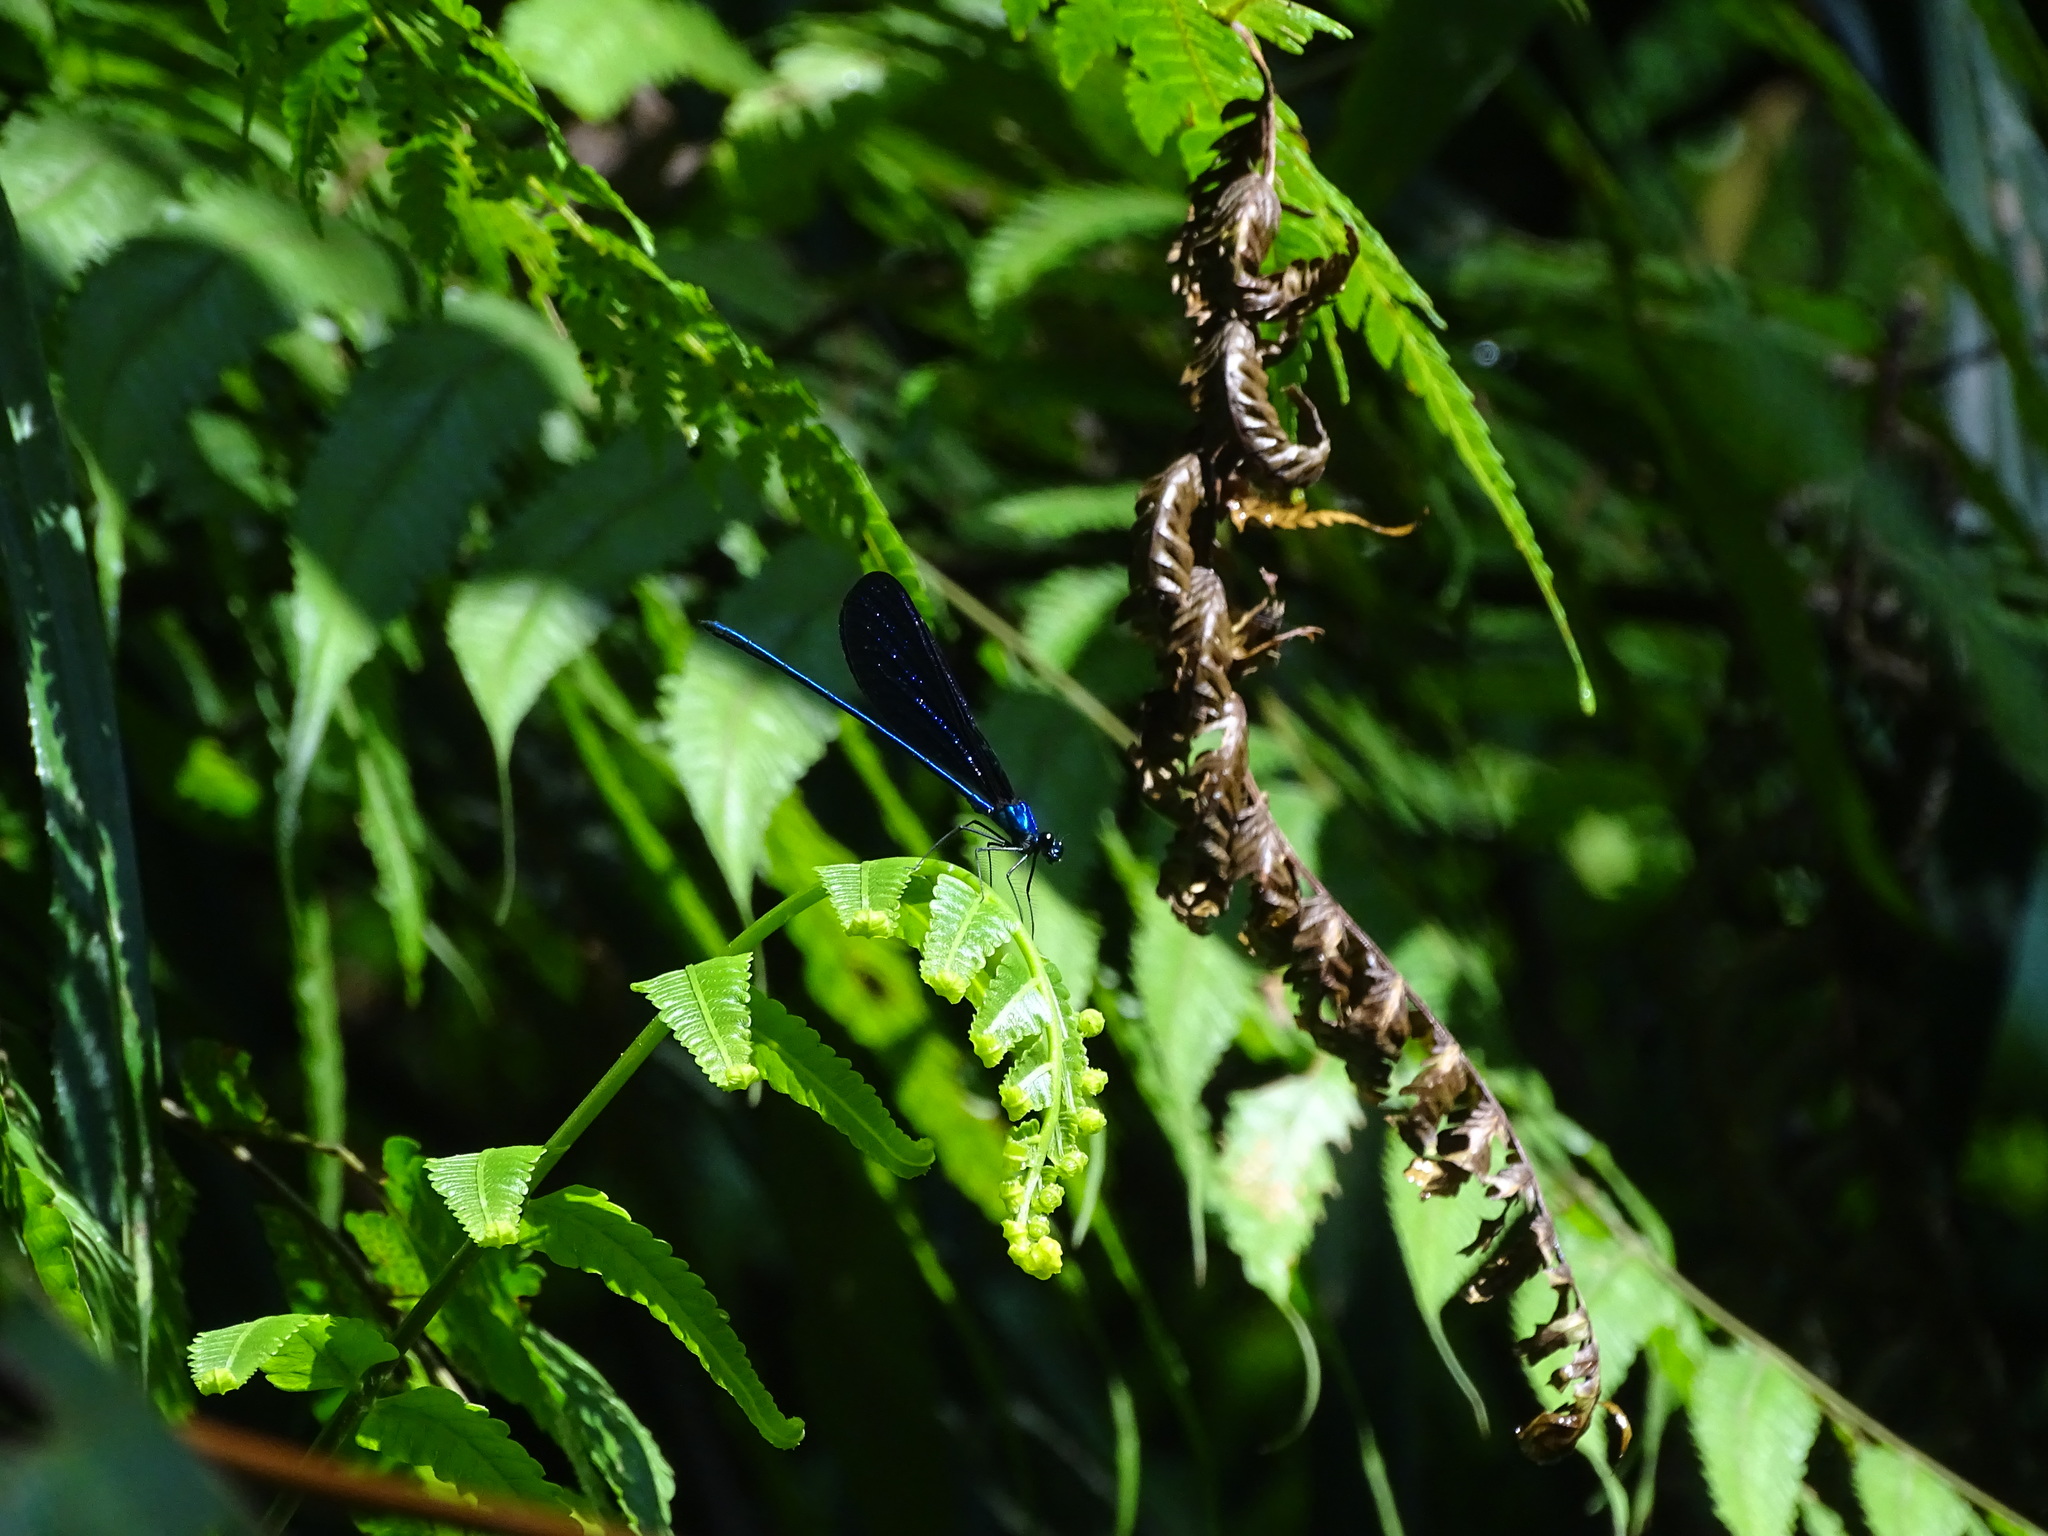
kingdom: Animalia
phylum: Arthropoda
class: Insecta
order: Odonata
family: Calopterygidae
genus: Vestalis
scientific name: Vestalis luctuosa
